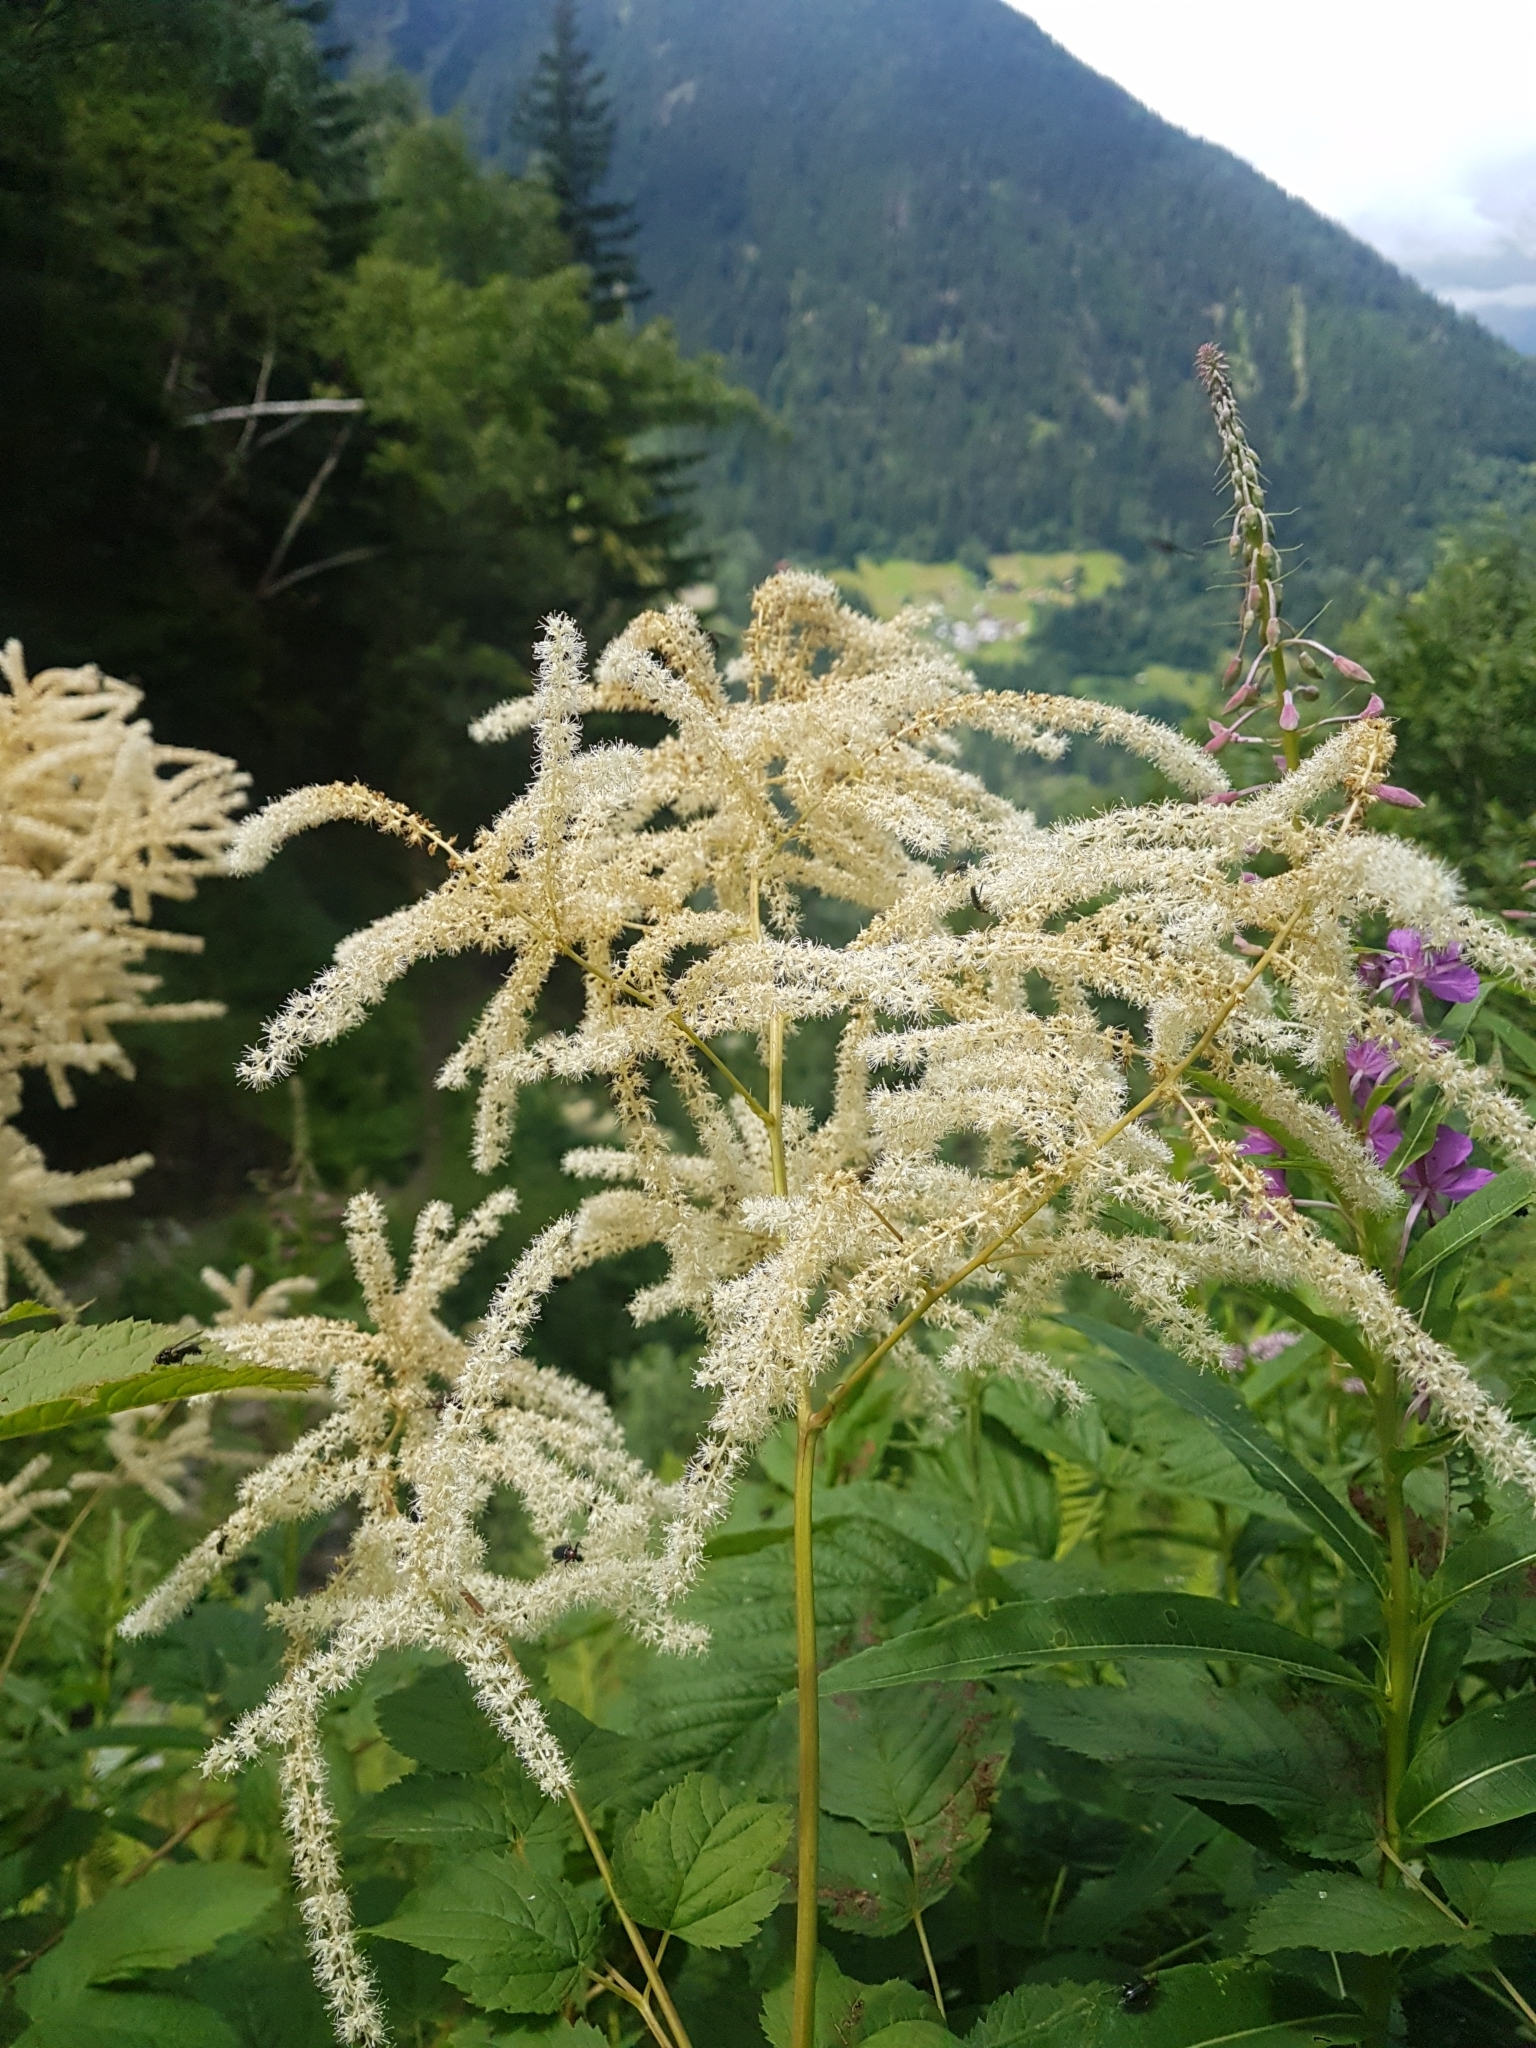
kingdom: Plantae
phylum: Tracheophyta
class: Magnoliopsida
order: Rosales
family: Rosaceae
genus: Aruncus
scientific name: Aruncus dioicus
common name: Buck's-beard
